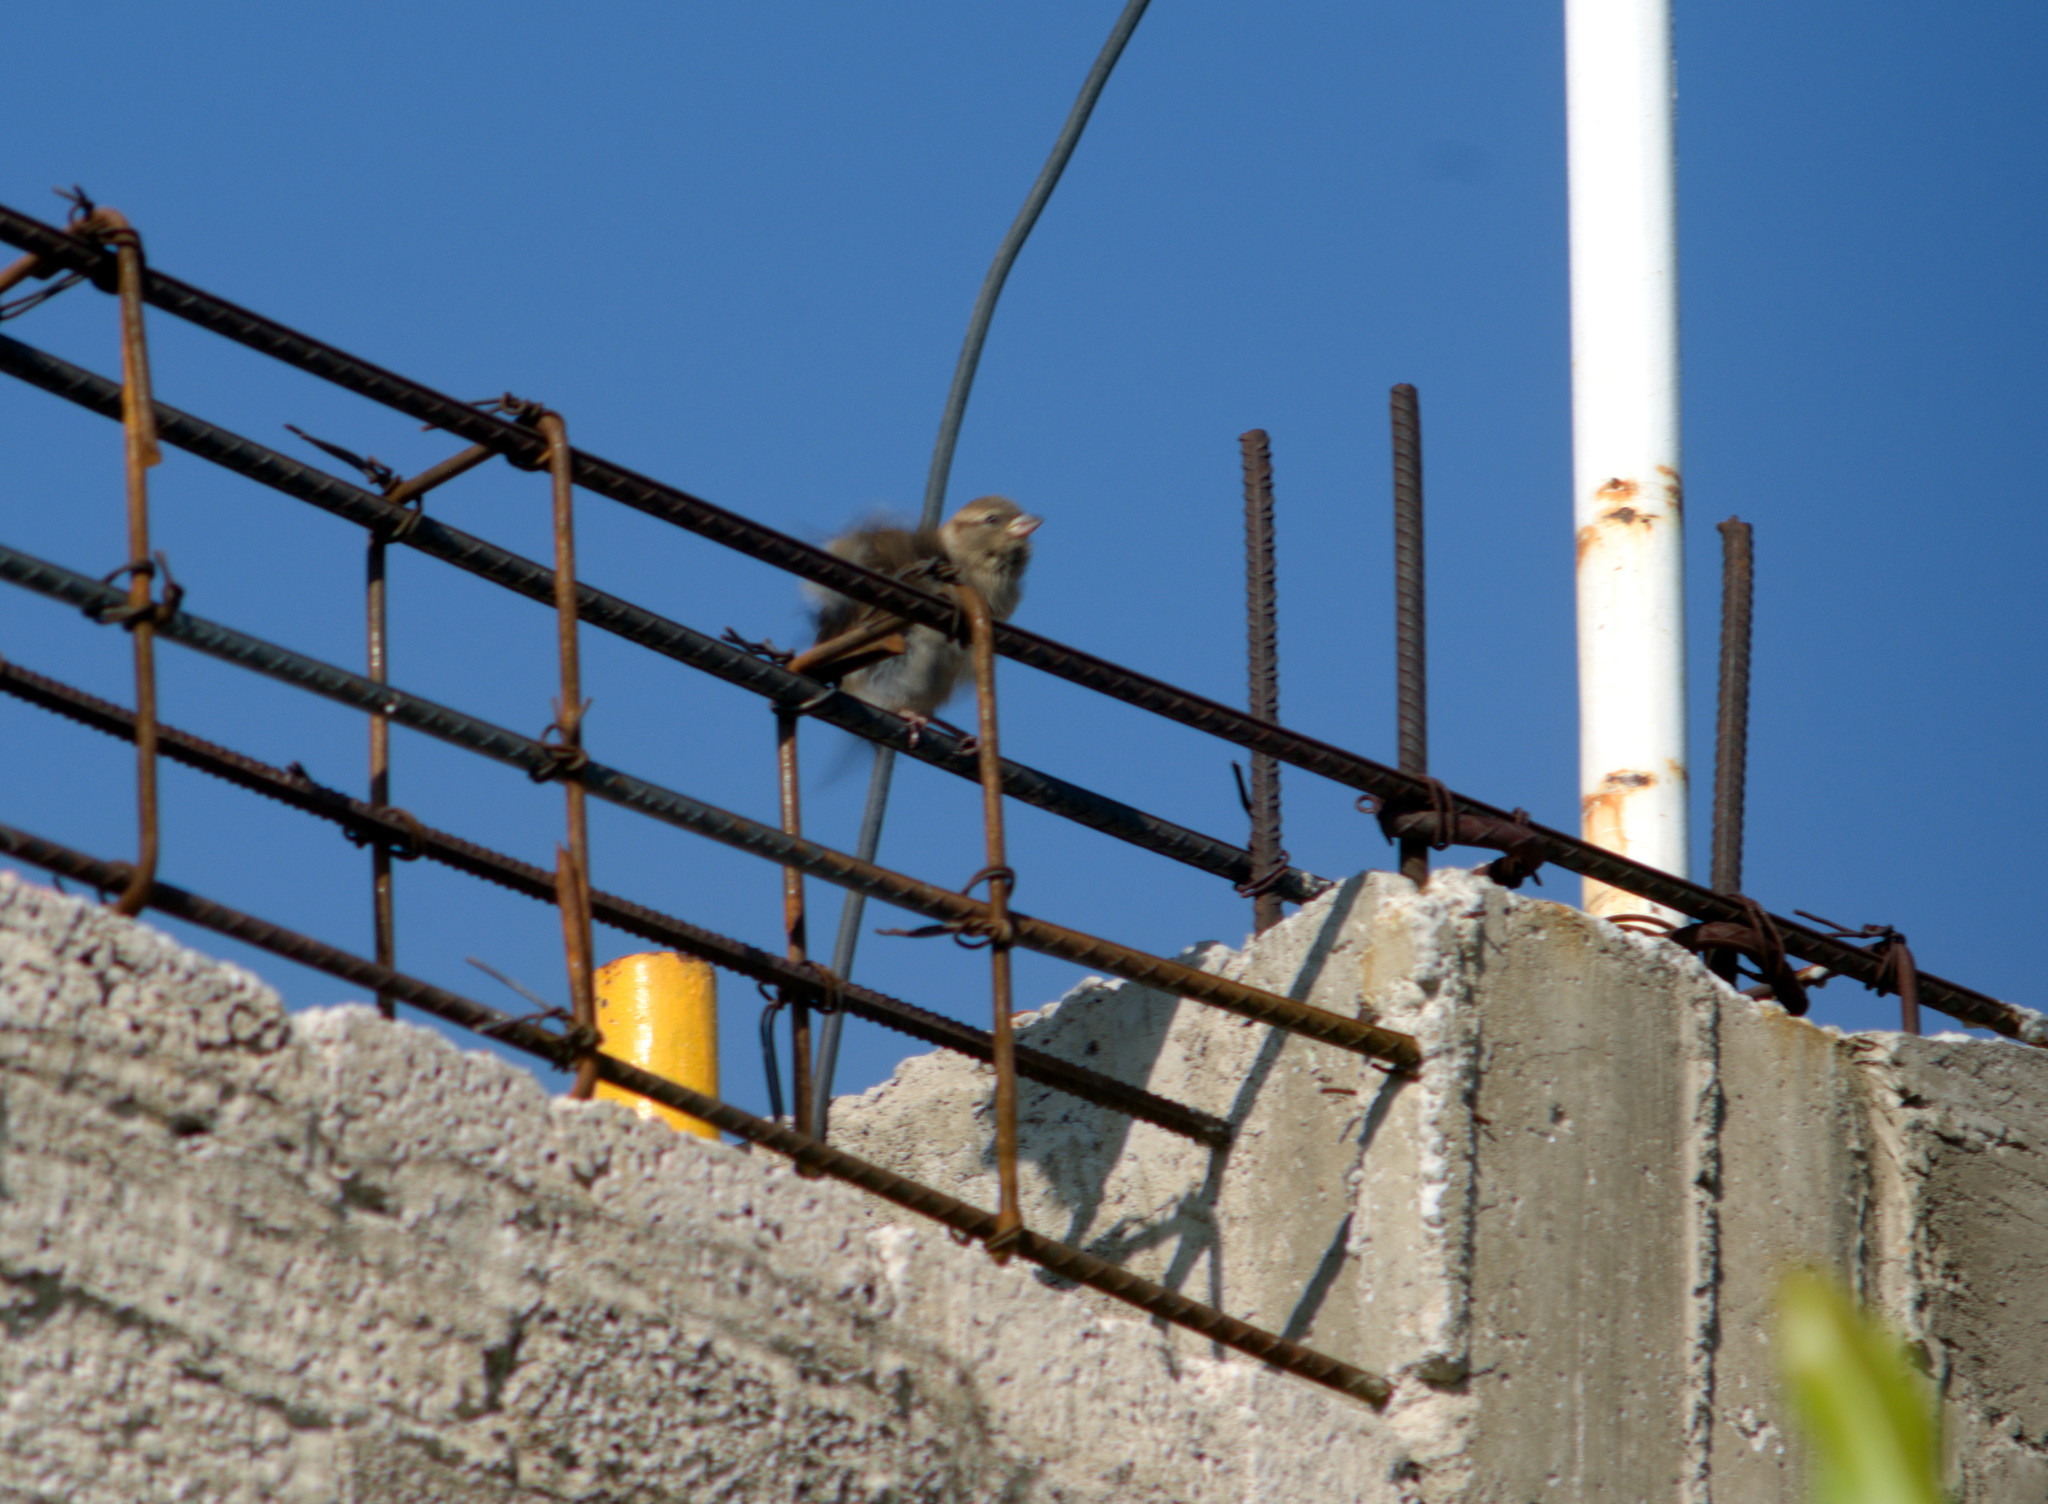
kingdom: Animalia
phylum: Chordata
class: Aves
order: Passeriformes
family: Passeridae
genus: Passer
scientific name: Passer domesticus
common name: House sparrow
